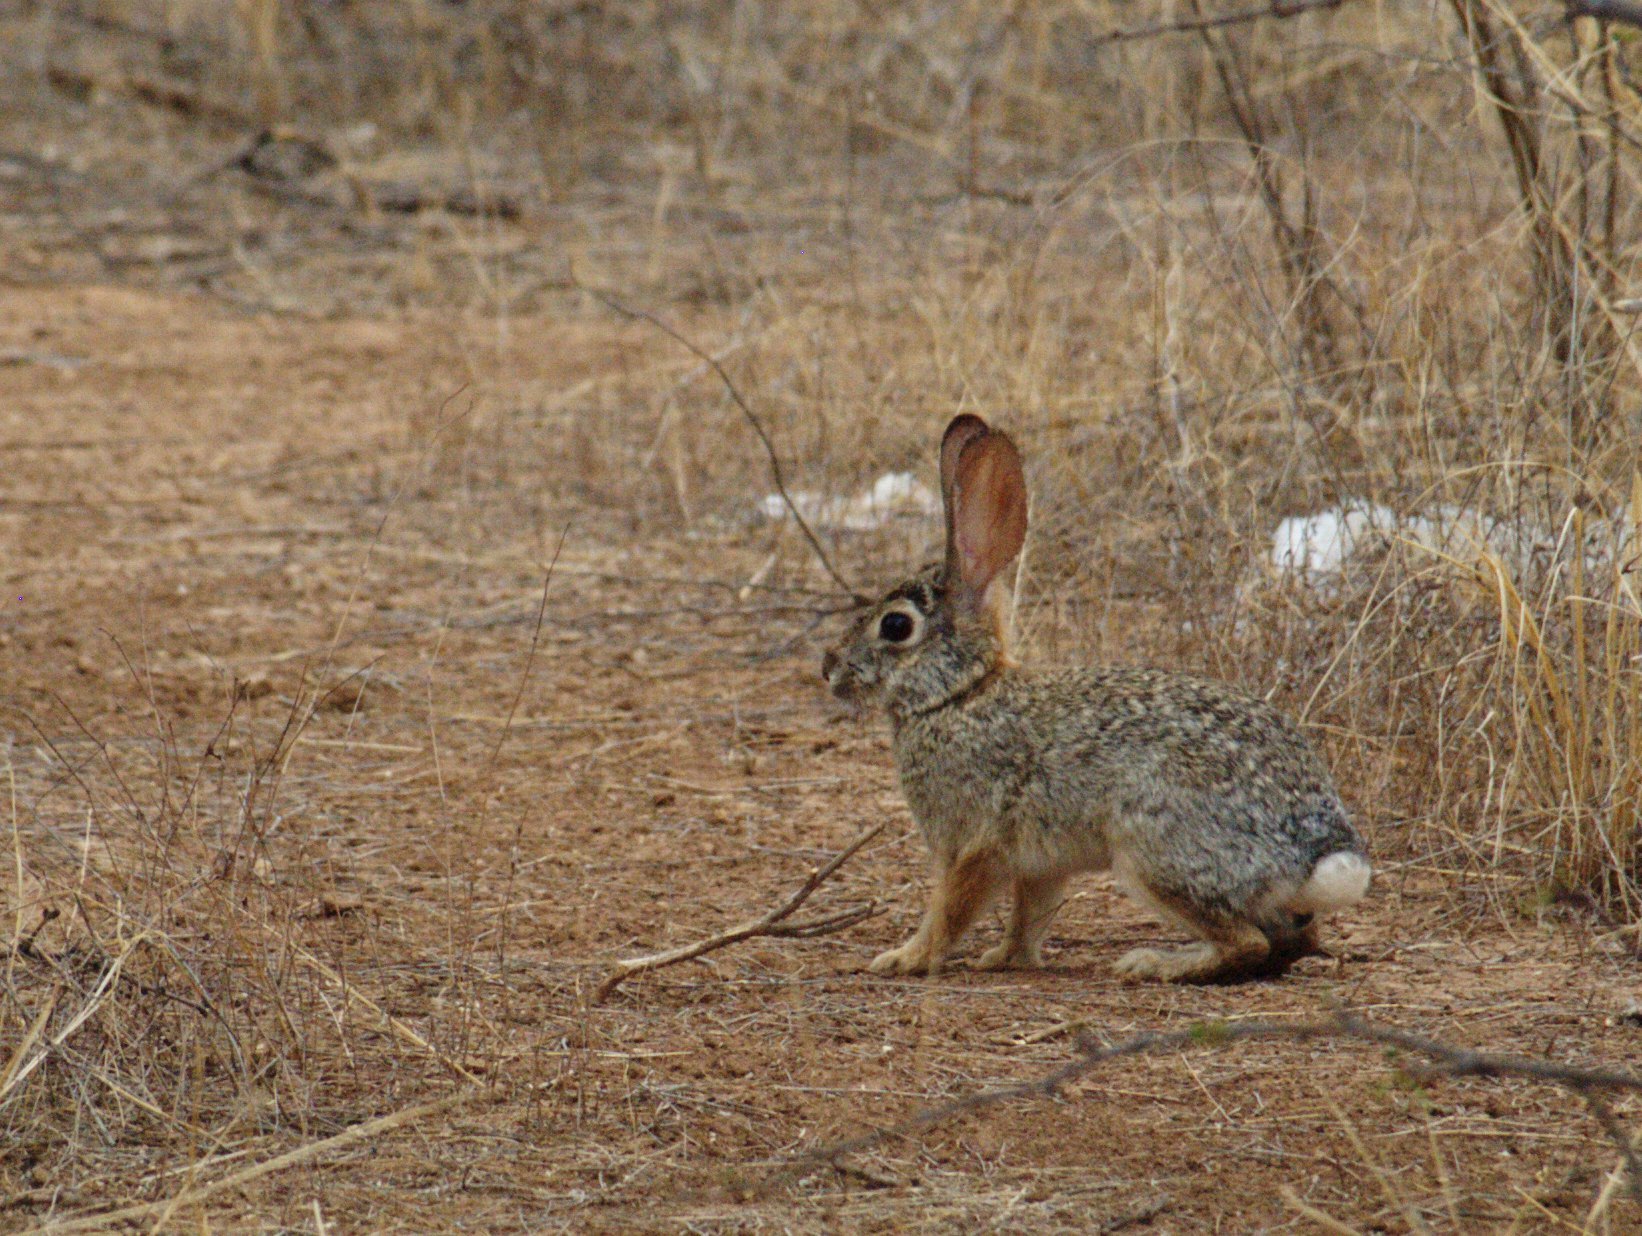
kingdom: Animalia
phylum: Chordata
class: Mammalia
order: Lagomorpha
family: Leporidae
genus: Sylvilagus
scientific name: Sylvilagus audubonii
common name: Desert cottontail
